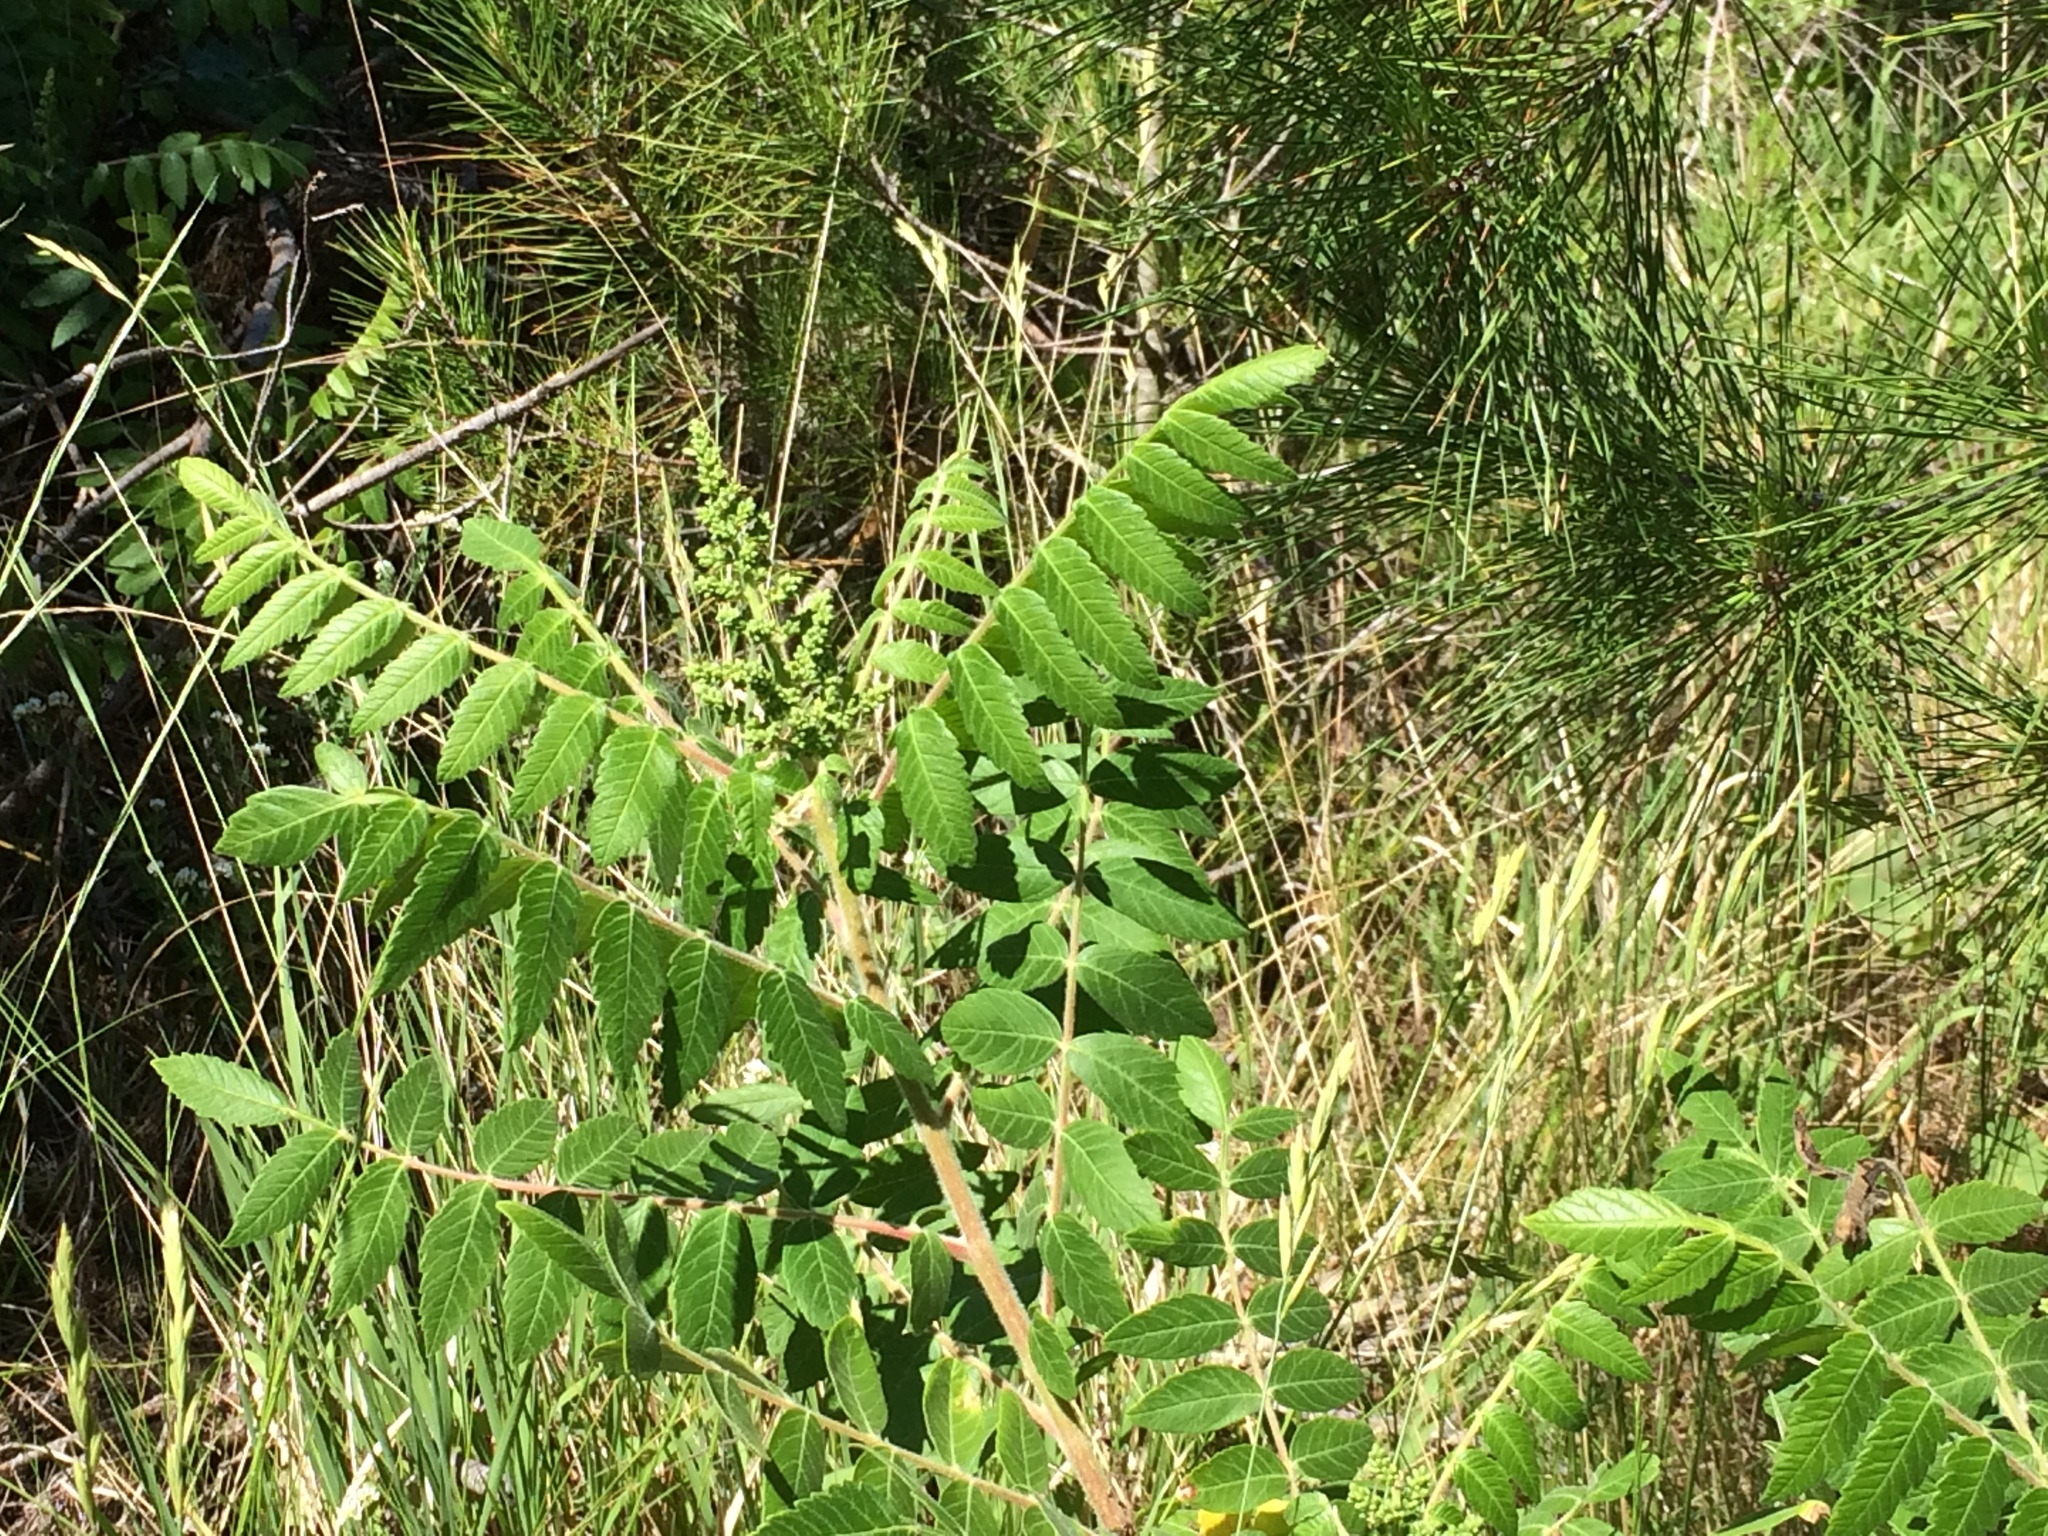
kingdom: Plantae
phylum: Tracheophyta
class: Magnoliopsida
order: Sapindales
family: Anacardiaceae
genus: Rhus
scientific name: Rhus coriaria
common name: Tanner's sumach
